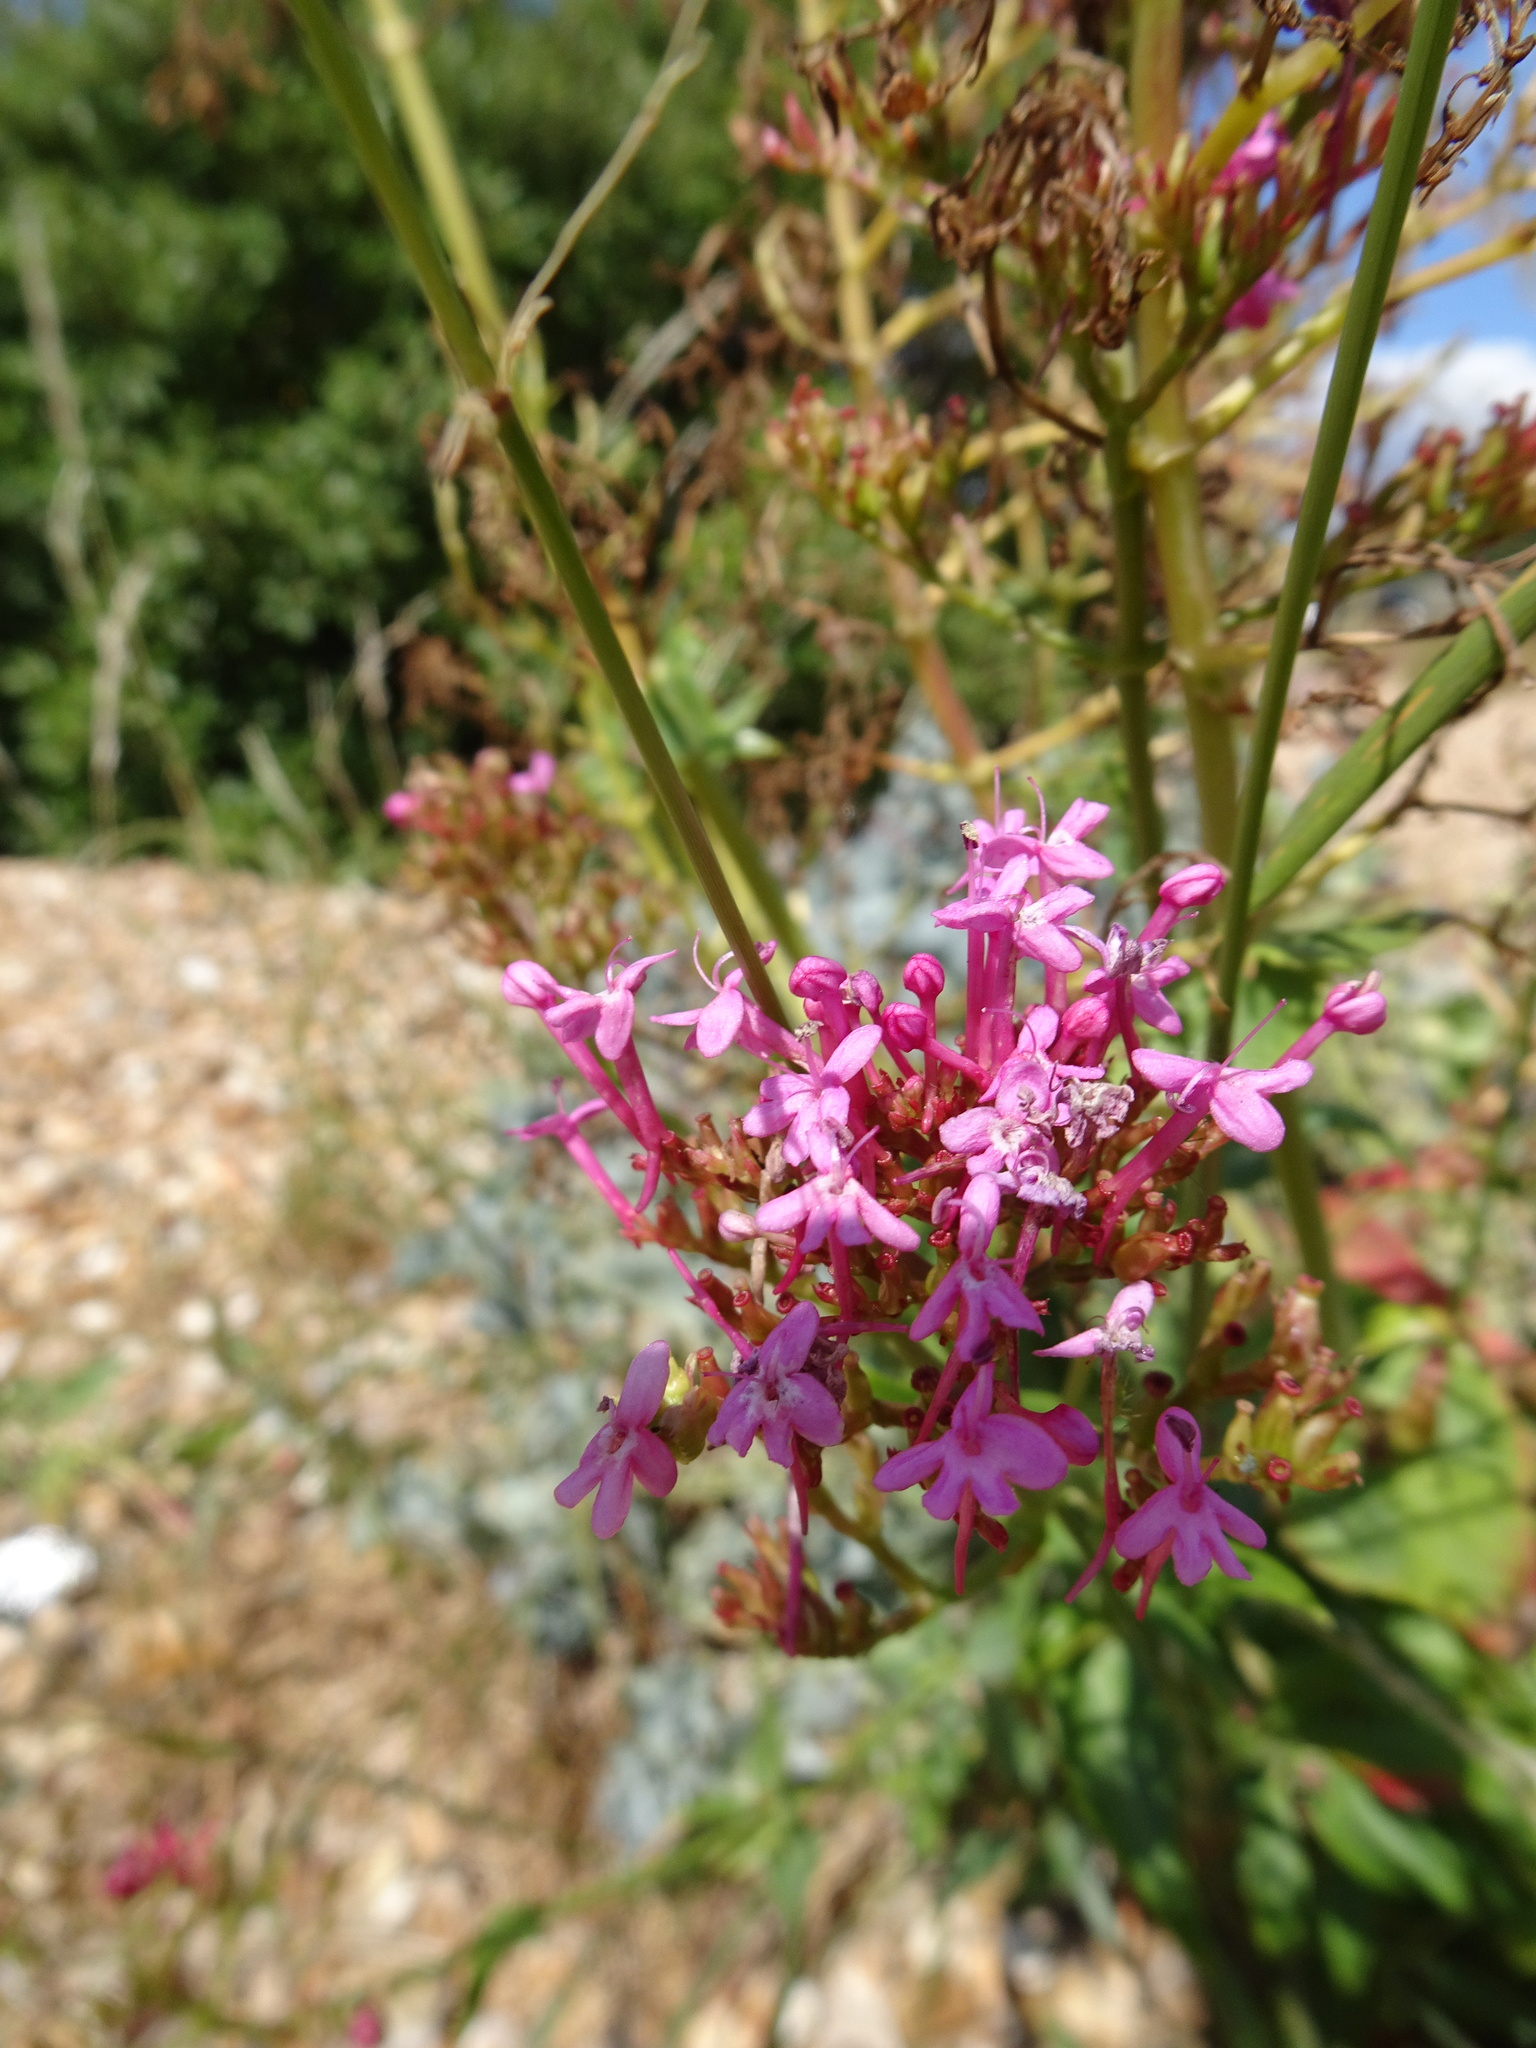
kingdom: Plantae
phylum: Tracheophyta
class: Magnoliopsida
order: Dipsacales
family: Caprifoliaceae
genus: Centranthus
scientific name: Centranthus ruber
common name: Red valerian
